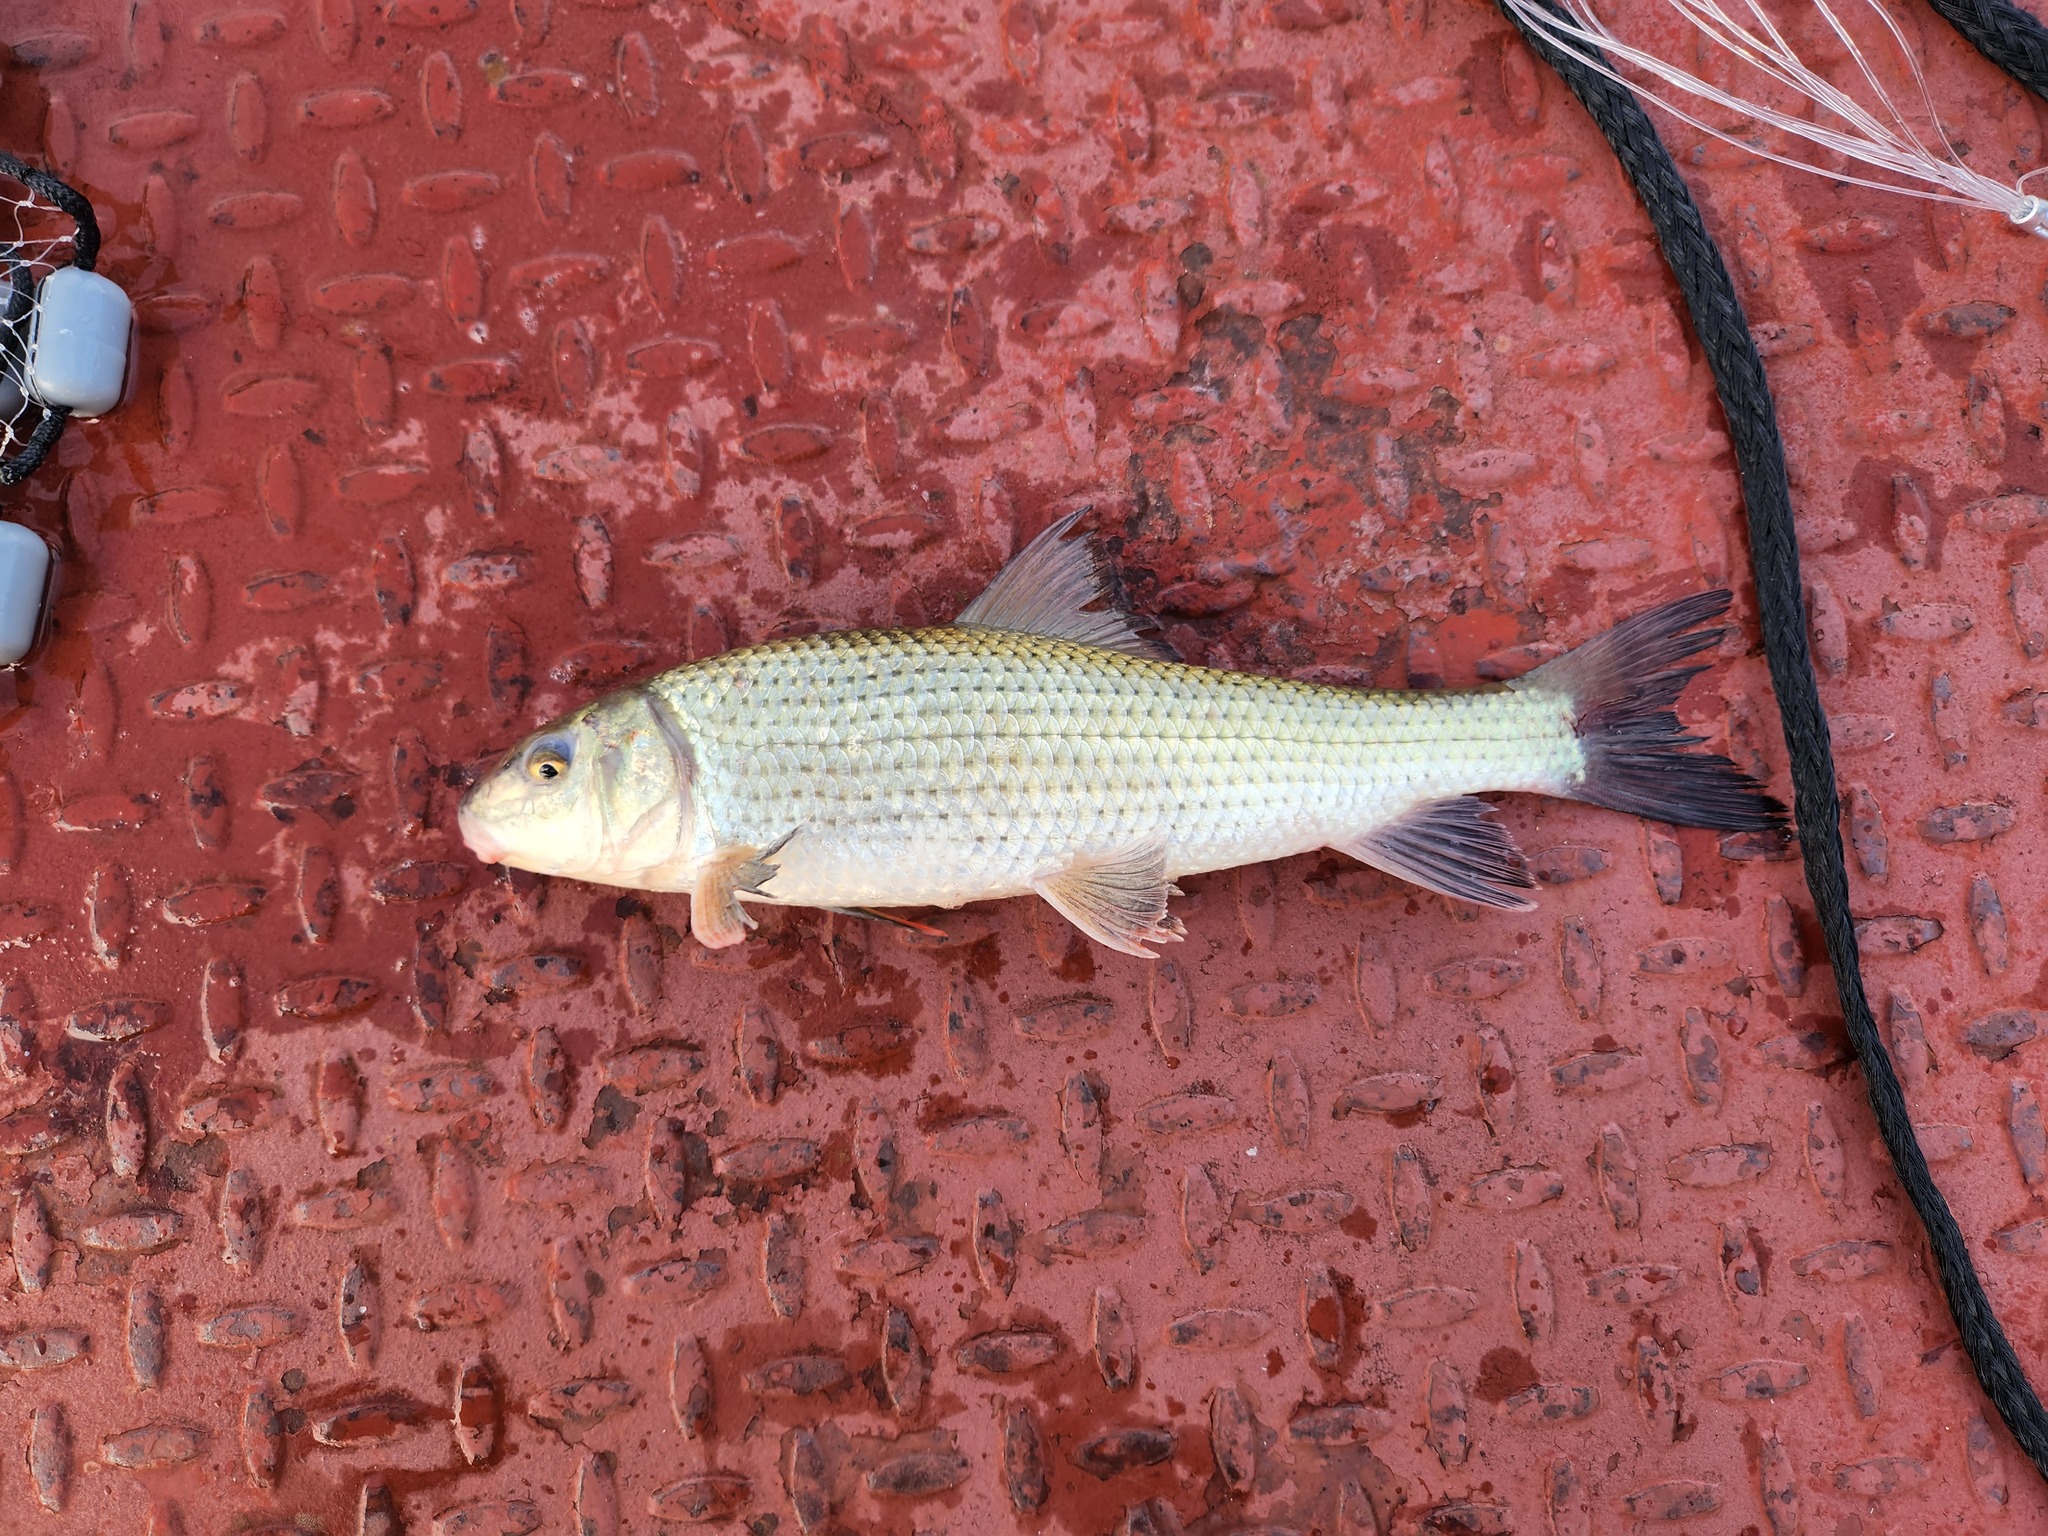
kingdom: Animalia
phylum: Chordata
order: Cypriniformes
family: Catostomidae
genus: Minytrema
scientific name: Minytrema melanops
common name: Spotted sucker
